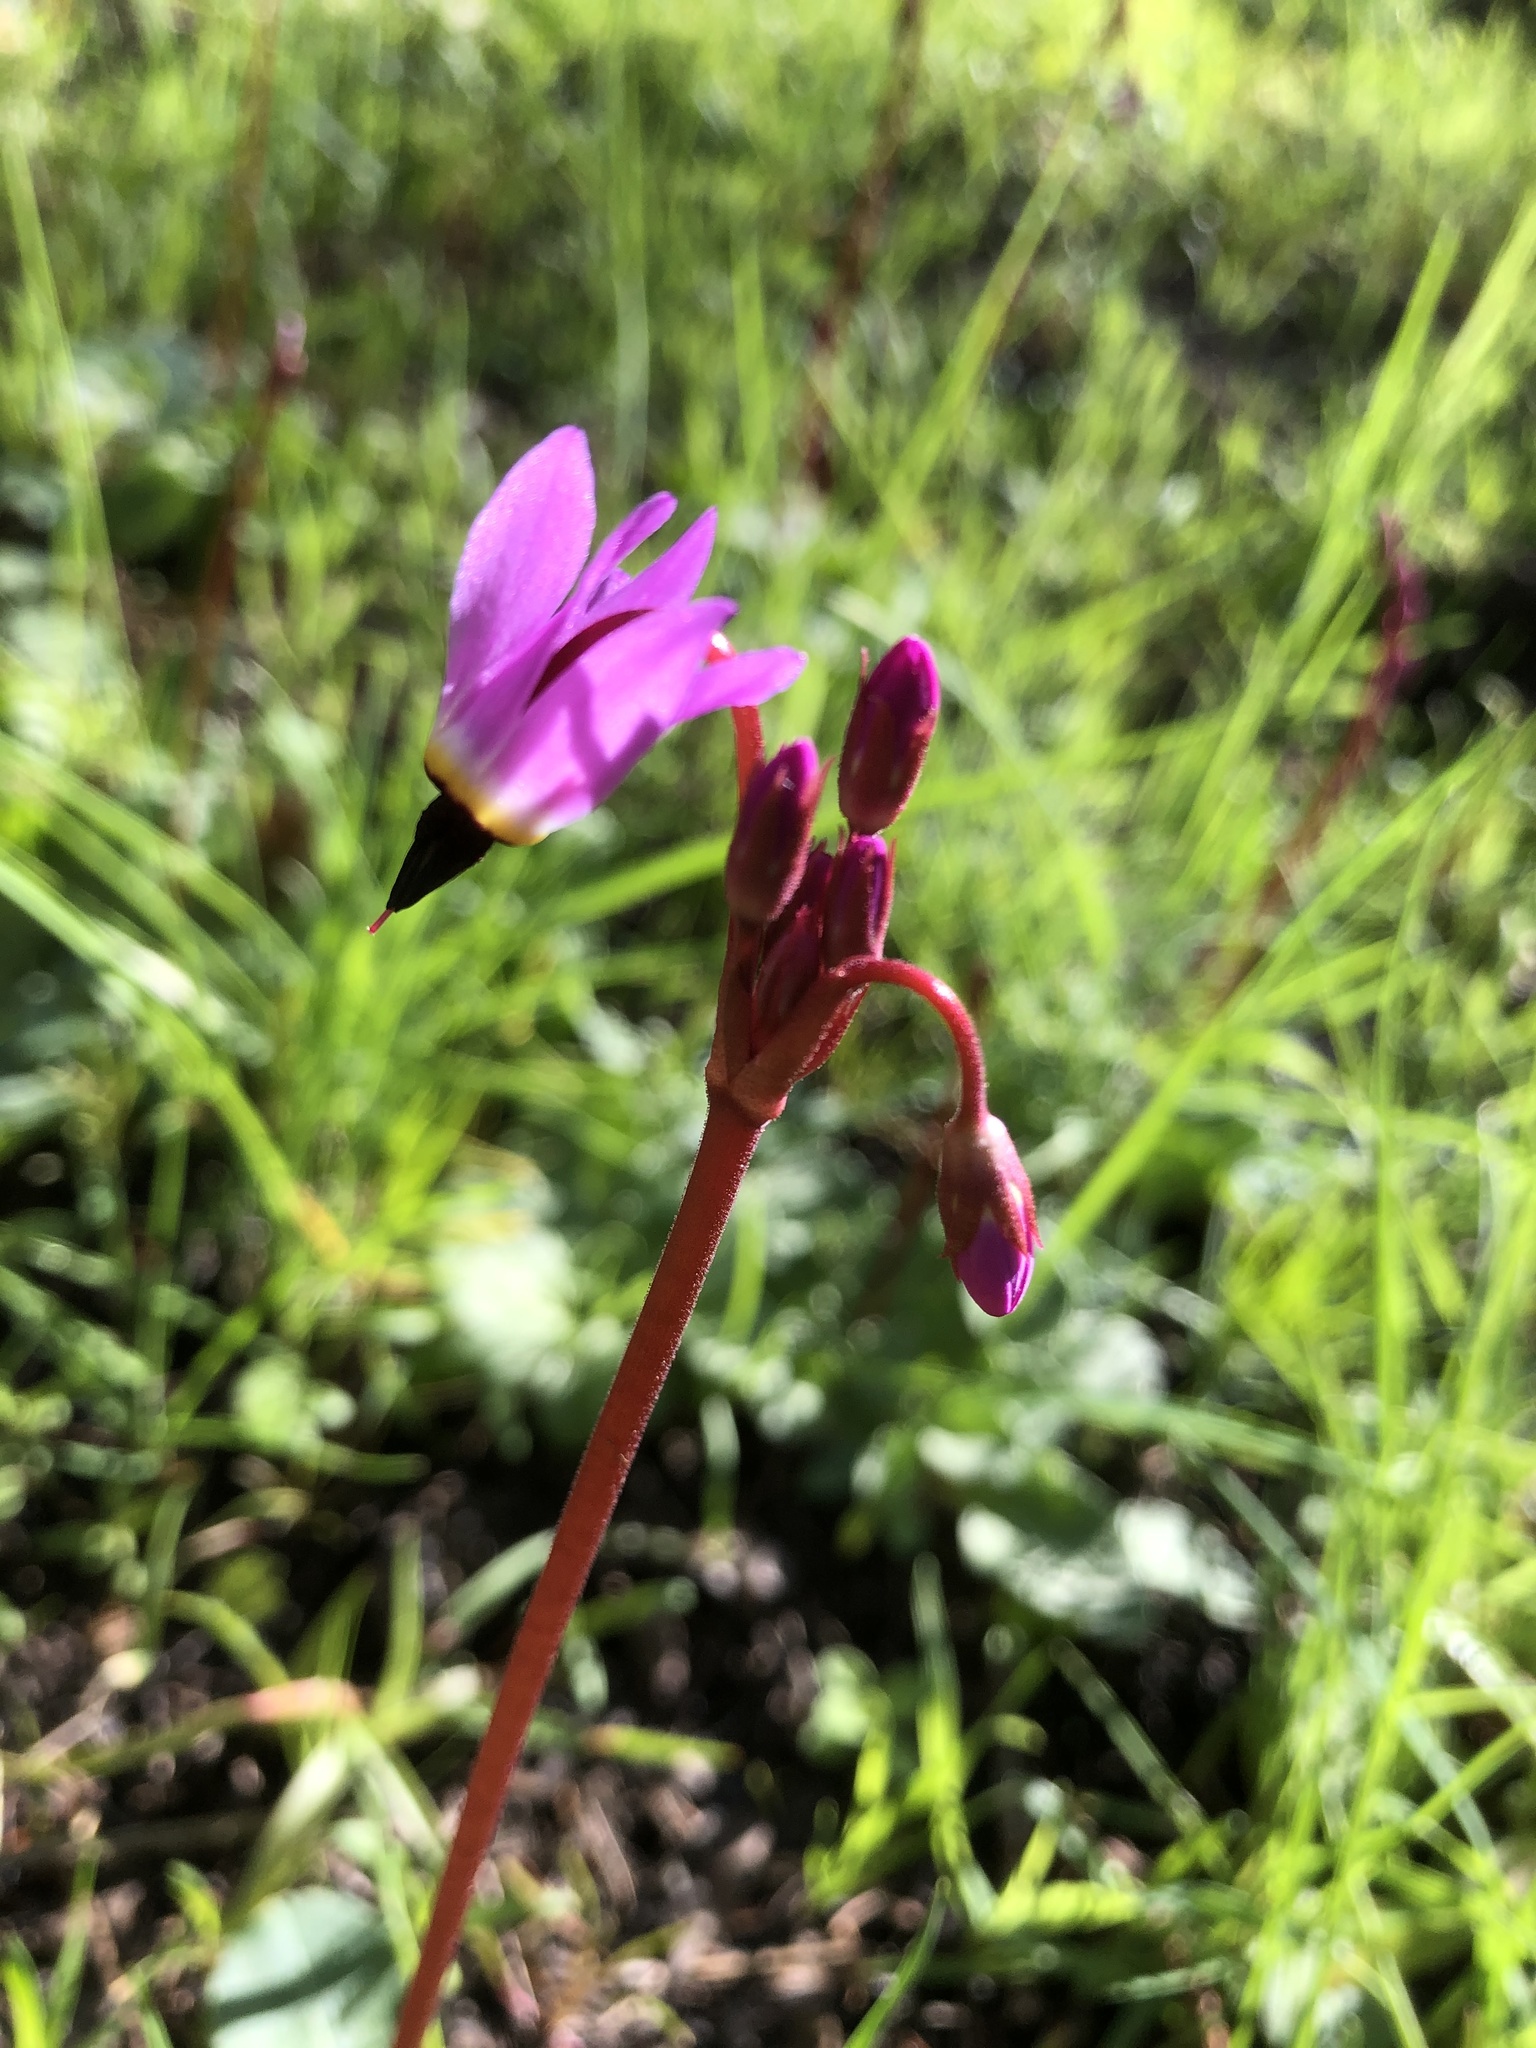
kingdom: Plantae
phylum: Tracheophyta
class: Magnoliopsida
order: Ericales
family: Primulaceae
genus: Dodecatheon
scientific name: Dodecatheon hendersonii
